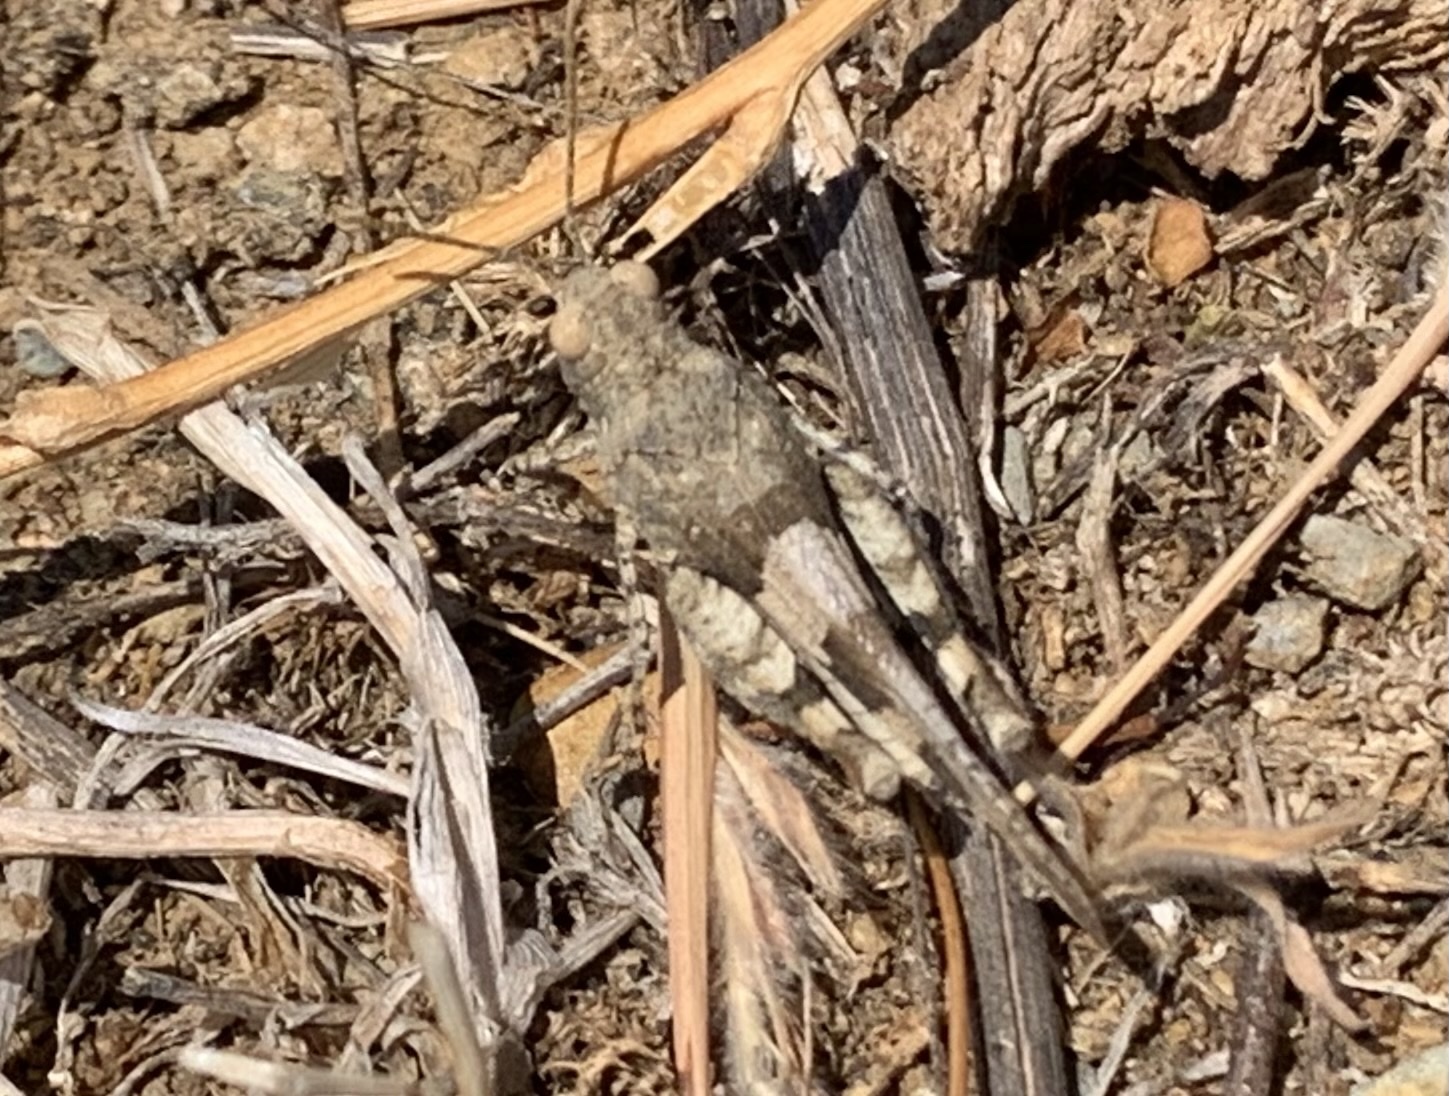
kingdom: Animalia
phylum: Arthropoda
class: Insecta
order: Orthoptera
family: Acrididae
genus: Oedipoda
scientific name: Oedipoda caerulescens
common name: Blue-winged grasshopper
